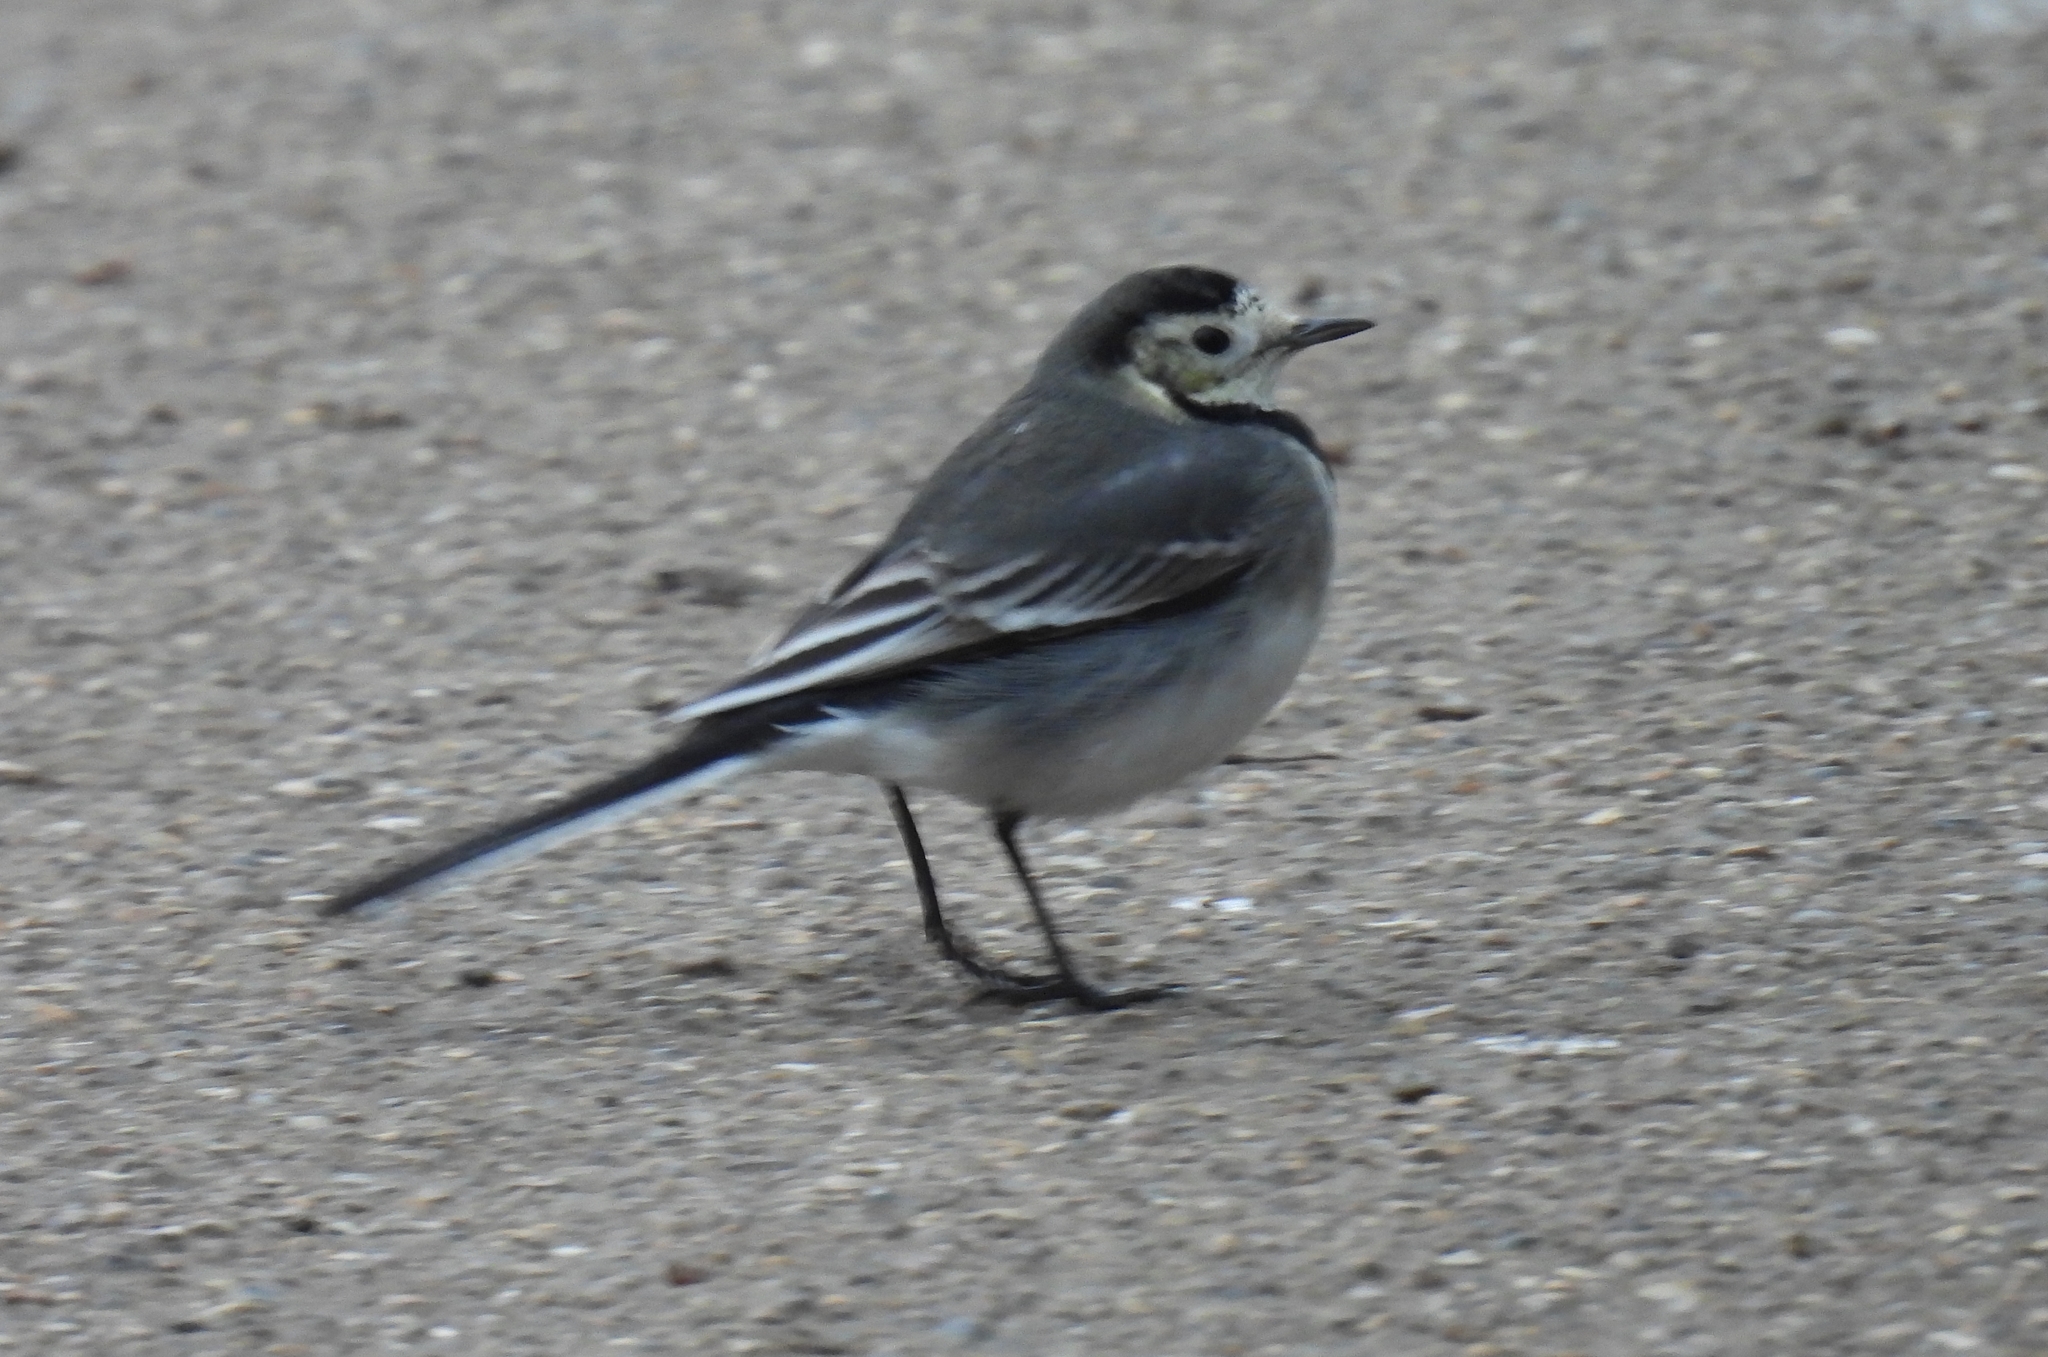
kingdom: Animalia
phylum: Chordata
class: Aves
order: Passeriformes
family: Motacillidae
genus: Motacilla
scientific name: Motacilla alba
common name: White wagtail
